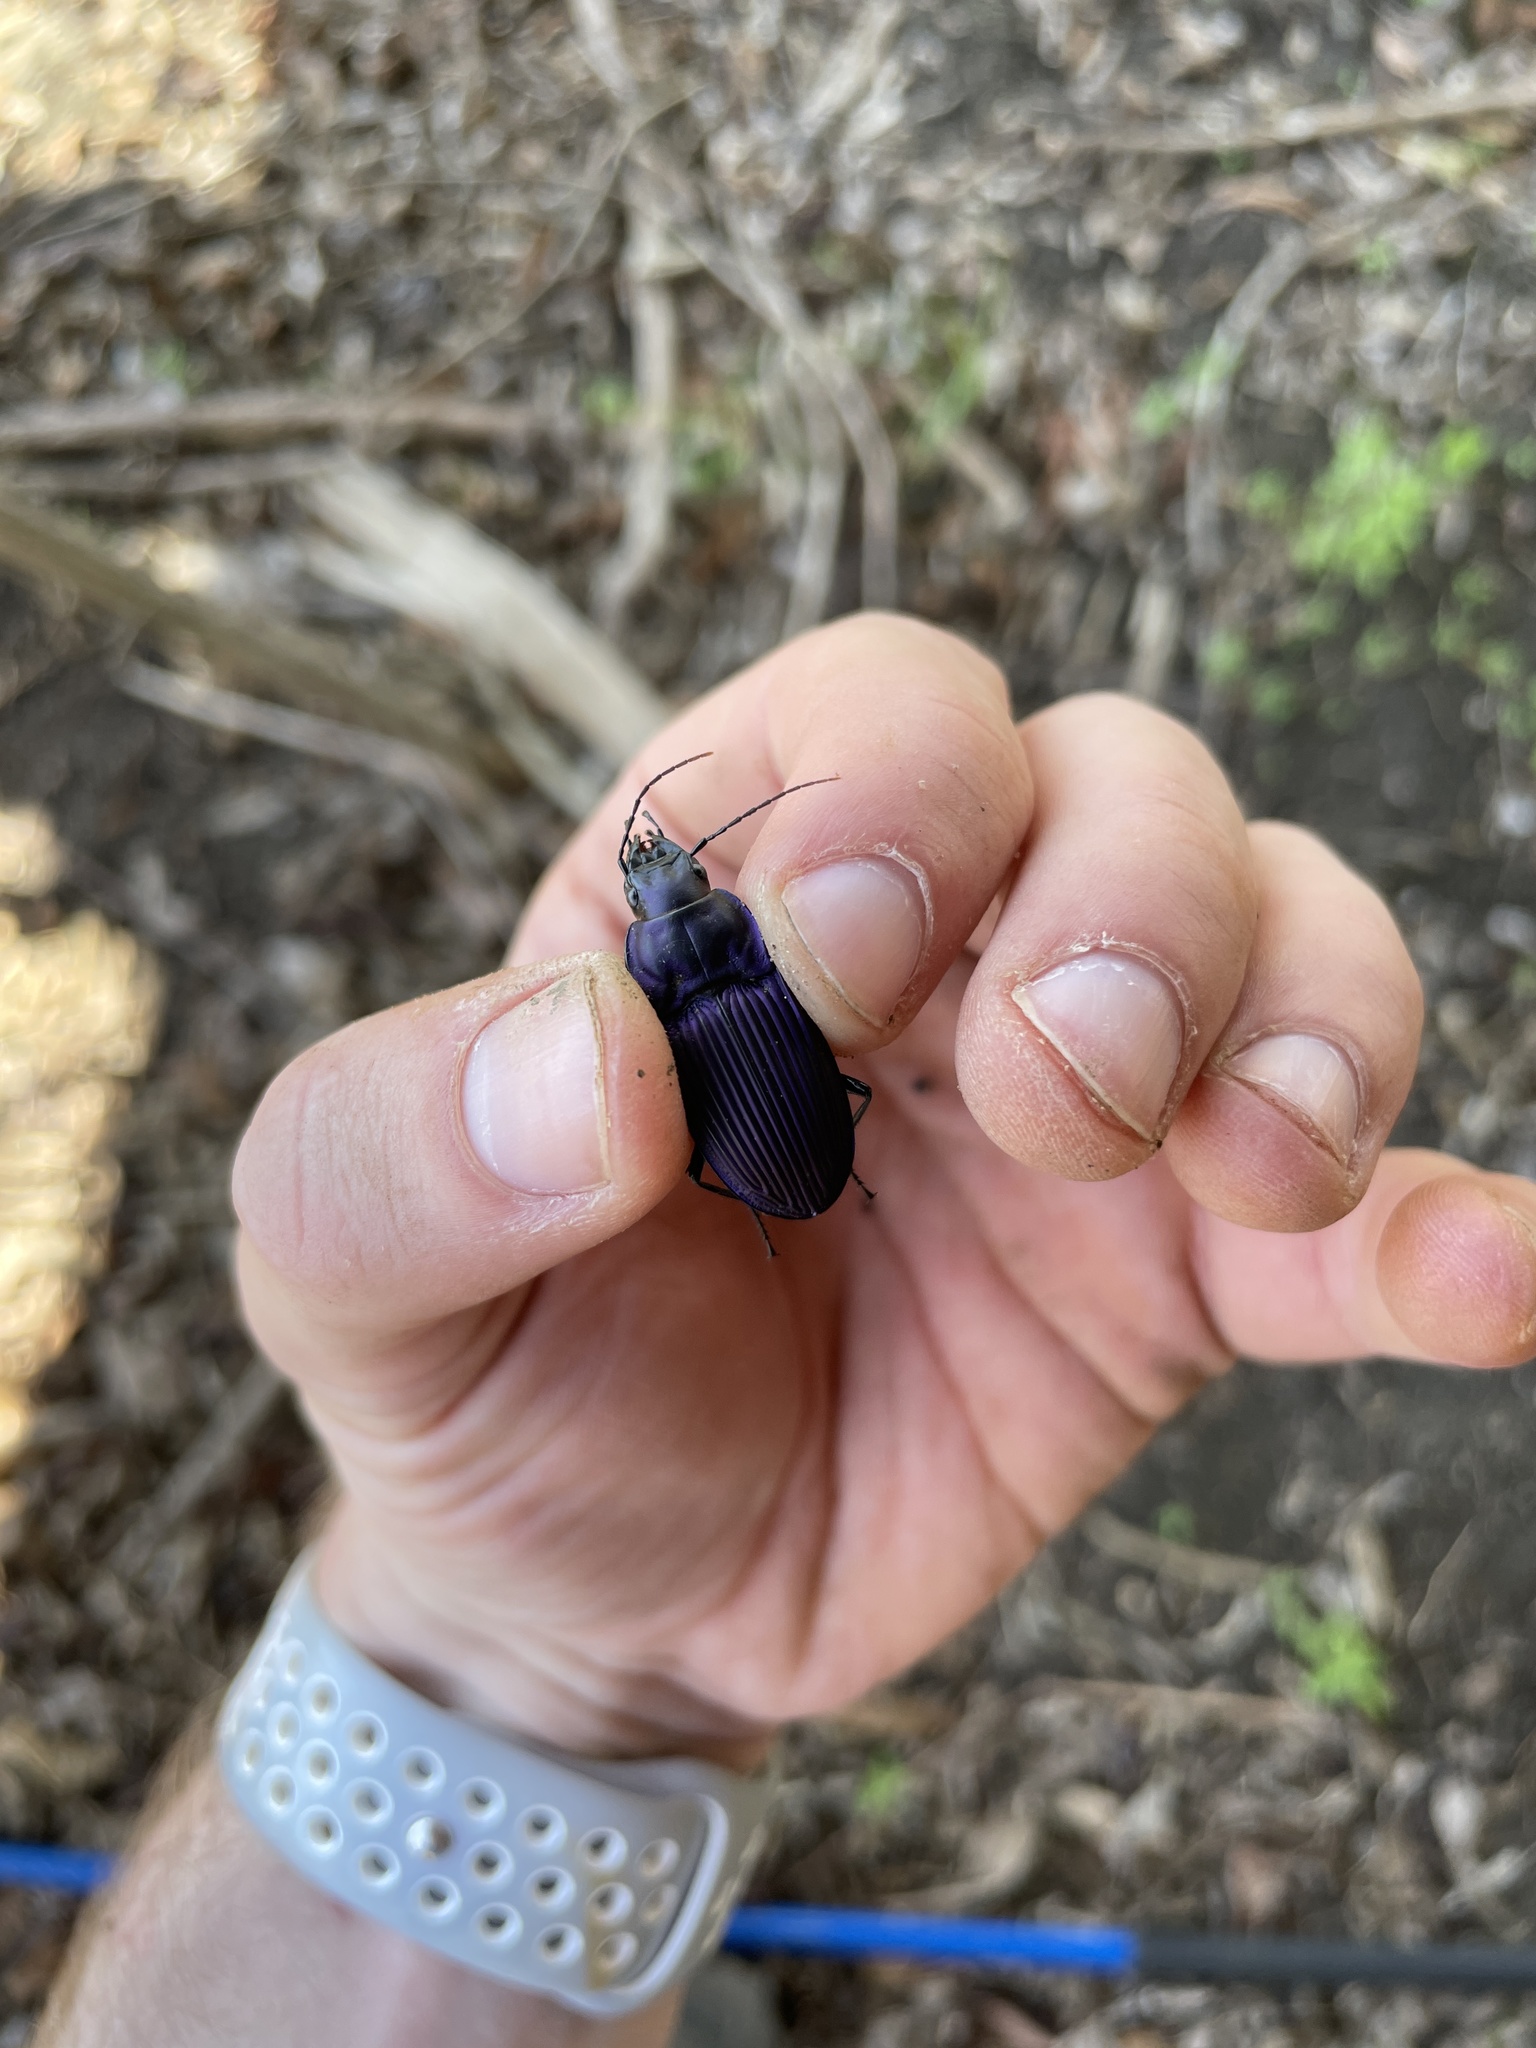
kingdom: Animalia
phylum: Arthropoda
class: Insecta
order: Coleoptera
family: Carabidae
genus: Dicaelus
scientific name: Dicaelus purpuratus
